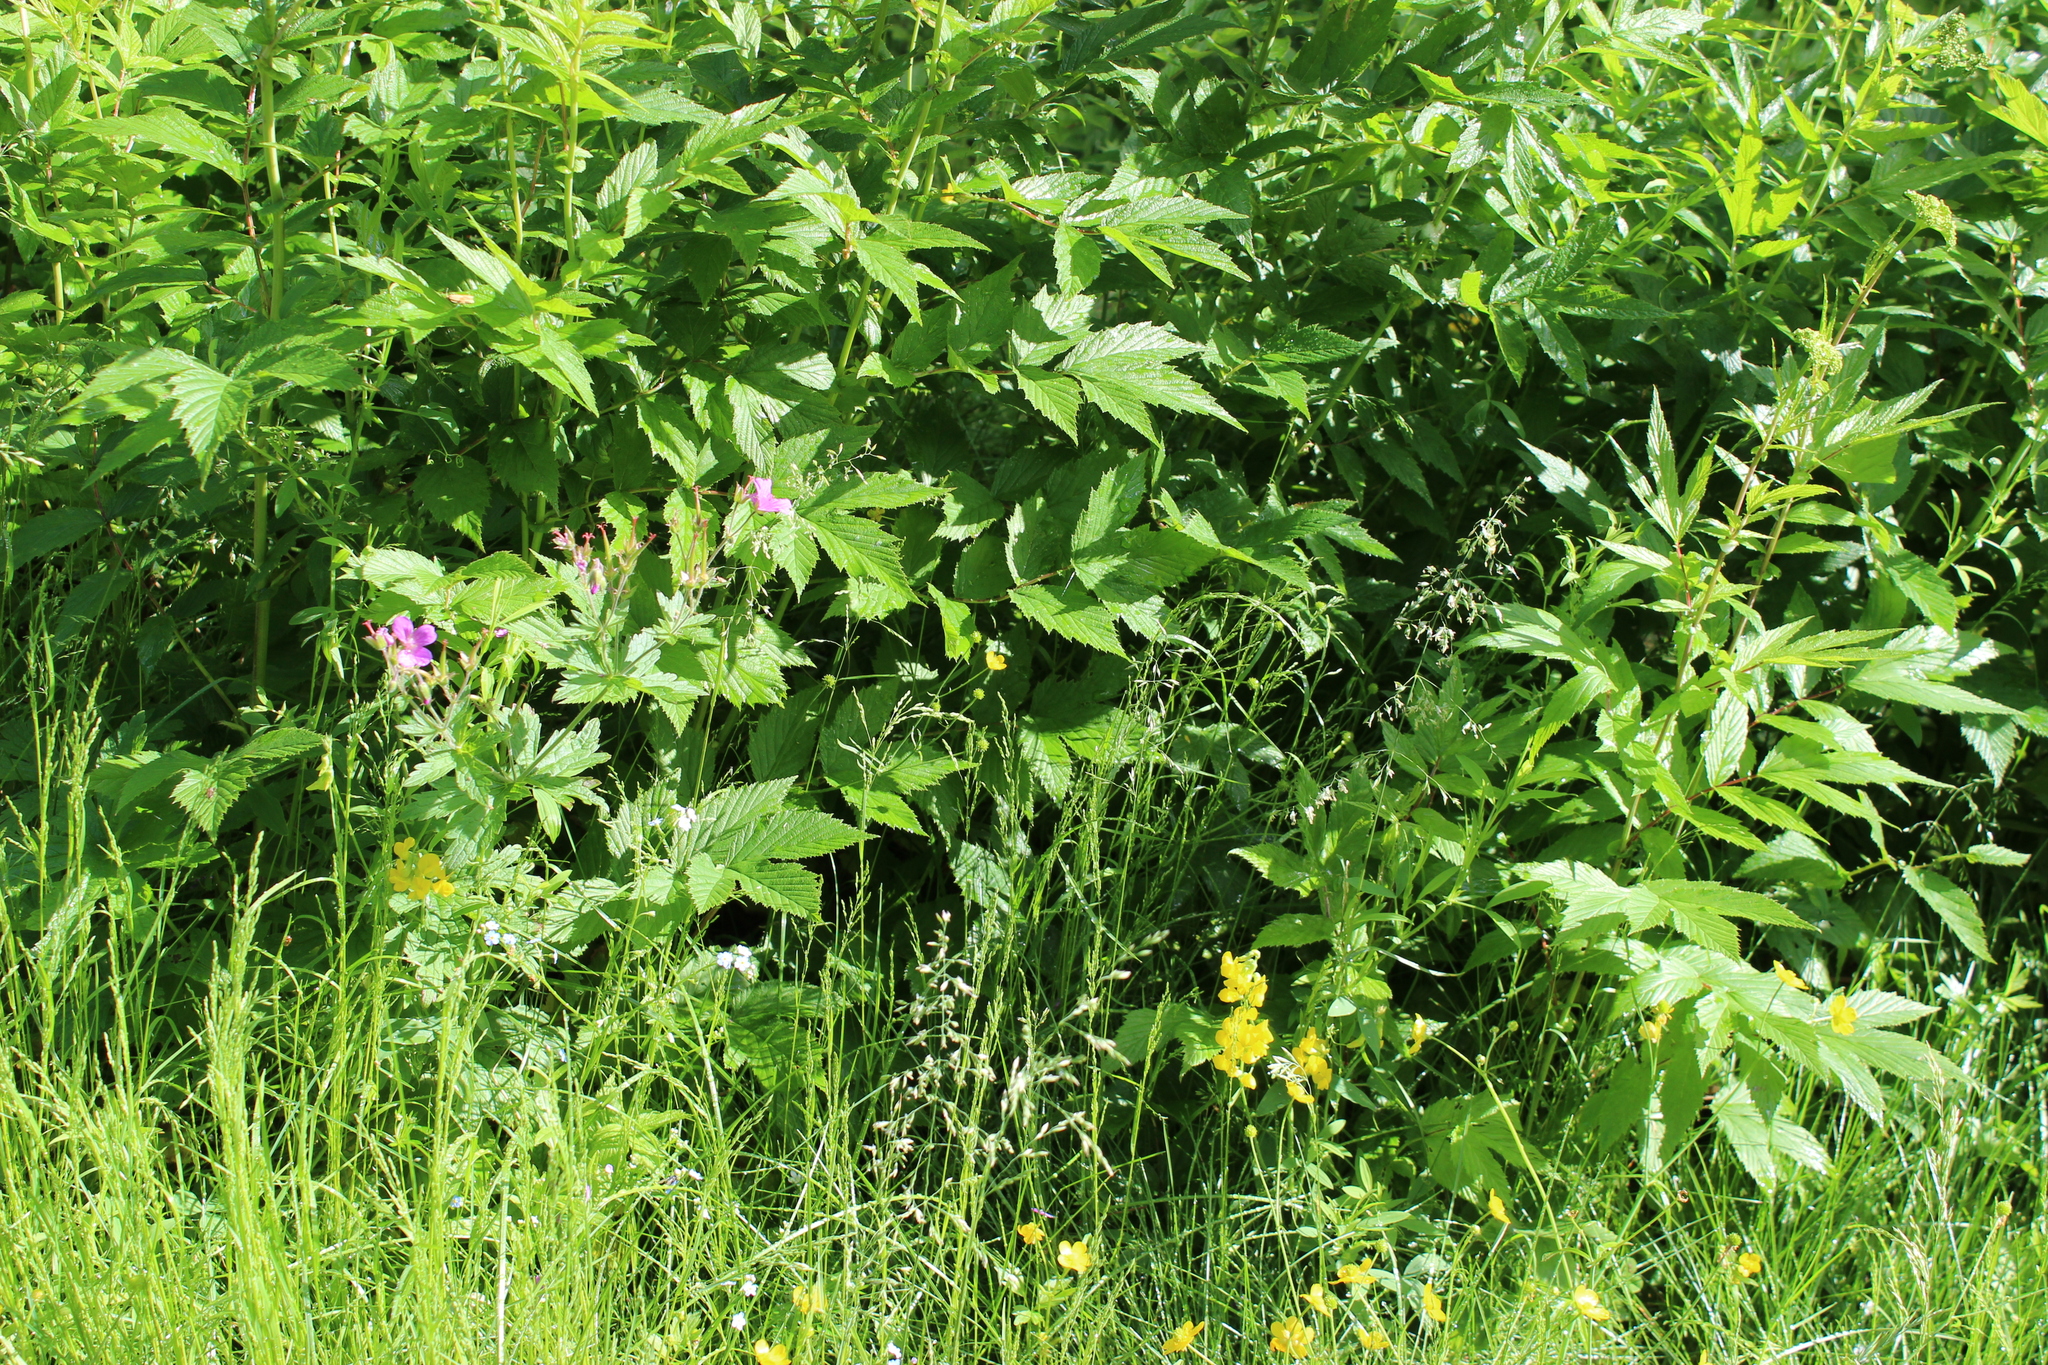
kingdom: Plantae
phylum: Tracheophyta
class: Magnoliopsida
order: Rosales
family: Rosaceae
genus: Filipendula
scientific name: Filipendula ulmaria
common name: Meadowsweet
